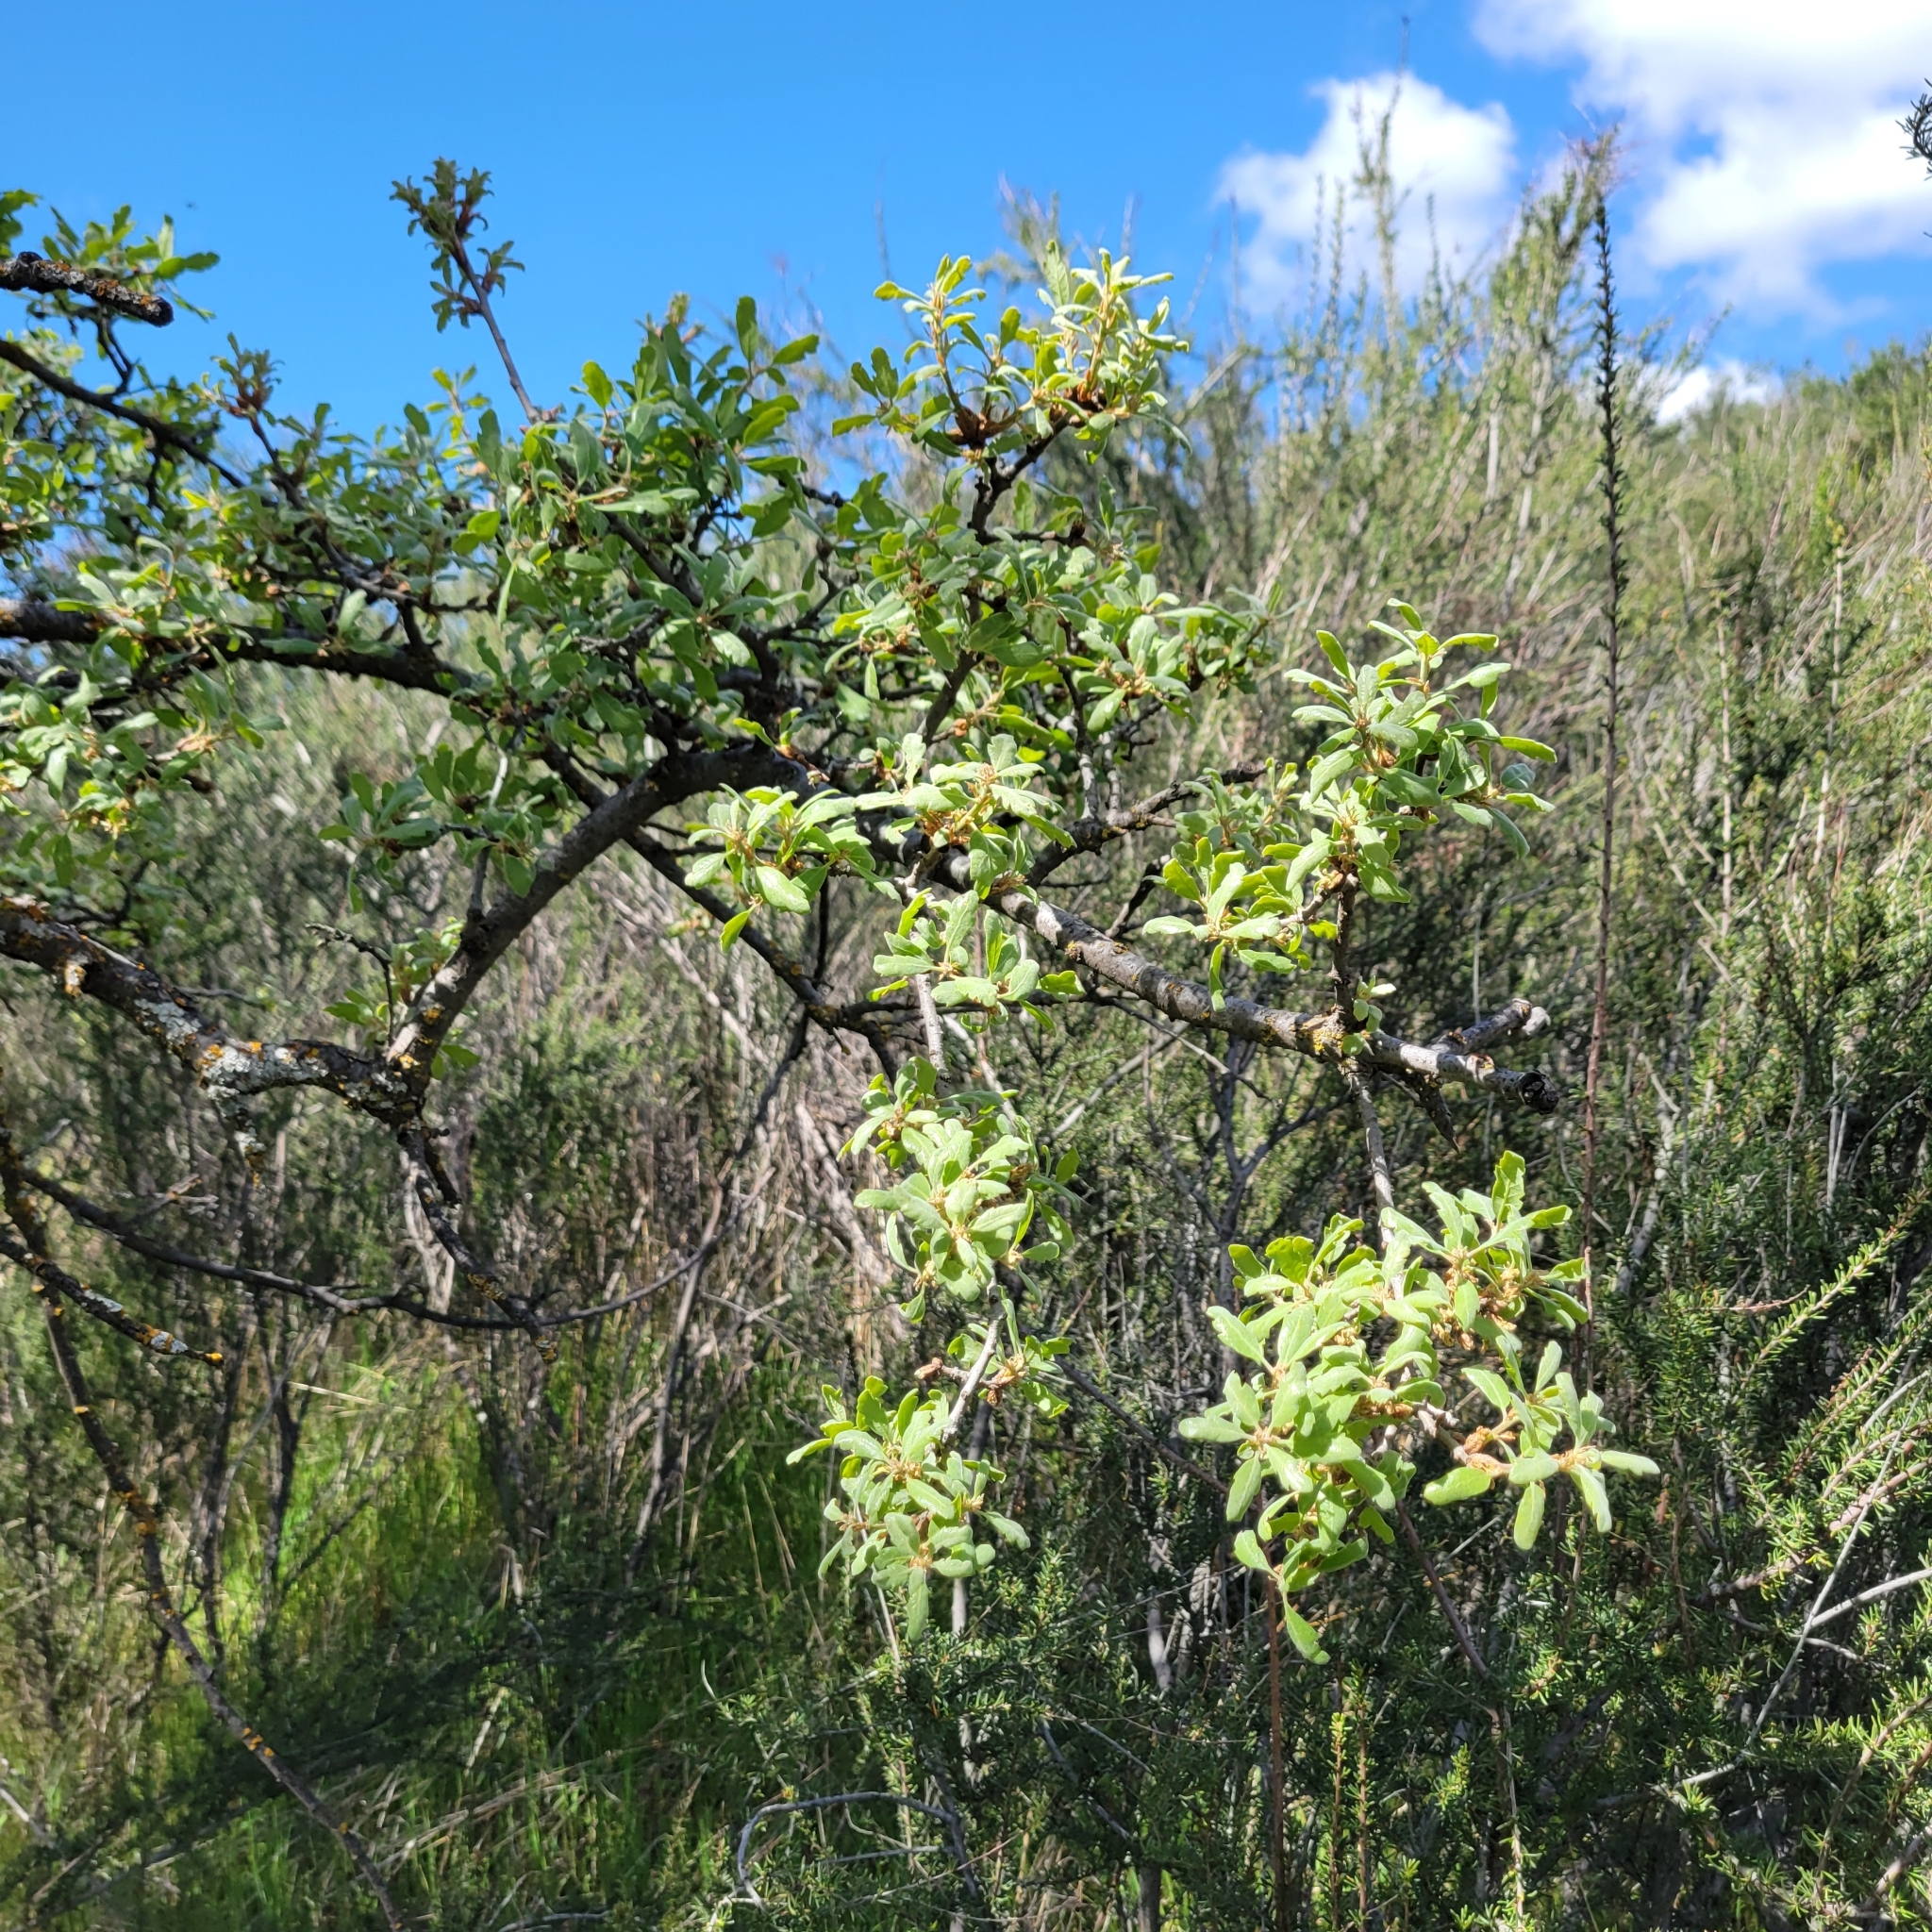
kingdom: Plantae
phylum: Tracheophyta
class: Magnoliopsida
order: Fagales
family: Fagaceae
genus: Quercus
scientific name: Quercus douglasii
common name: Blue oak
